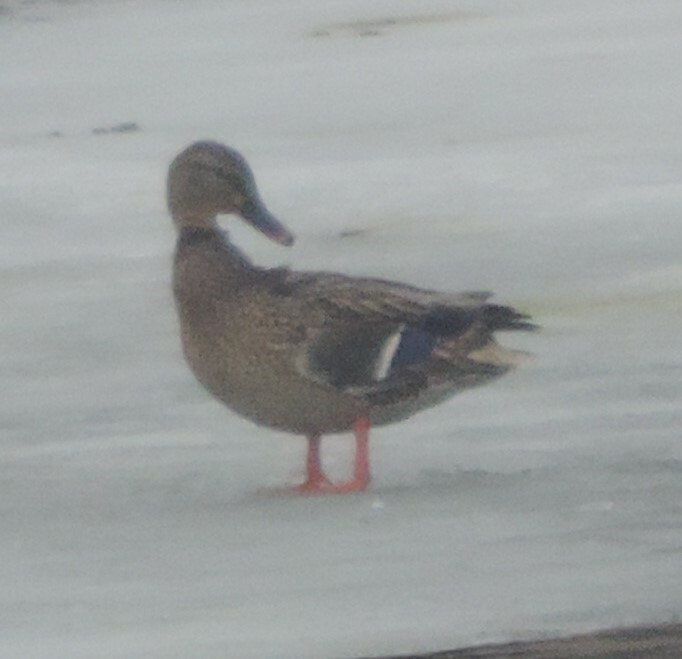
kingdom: Animalia
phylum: Chordata
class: Aves
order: Anseriformes
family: Anatidae
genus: Anas
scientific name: Anas platyrhynchos
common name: Mallard
